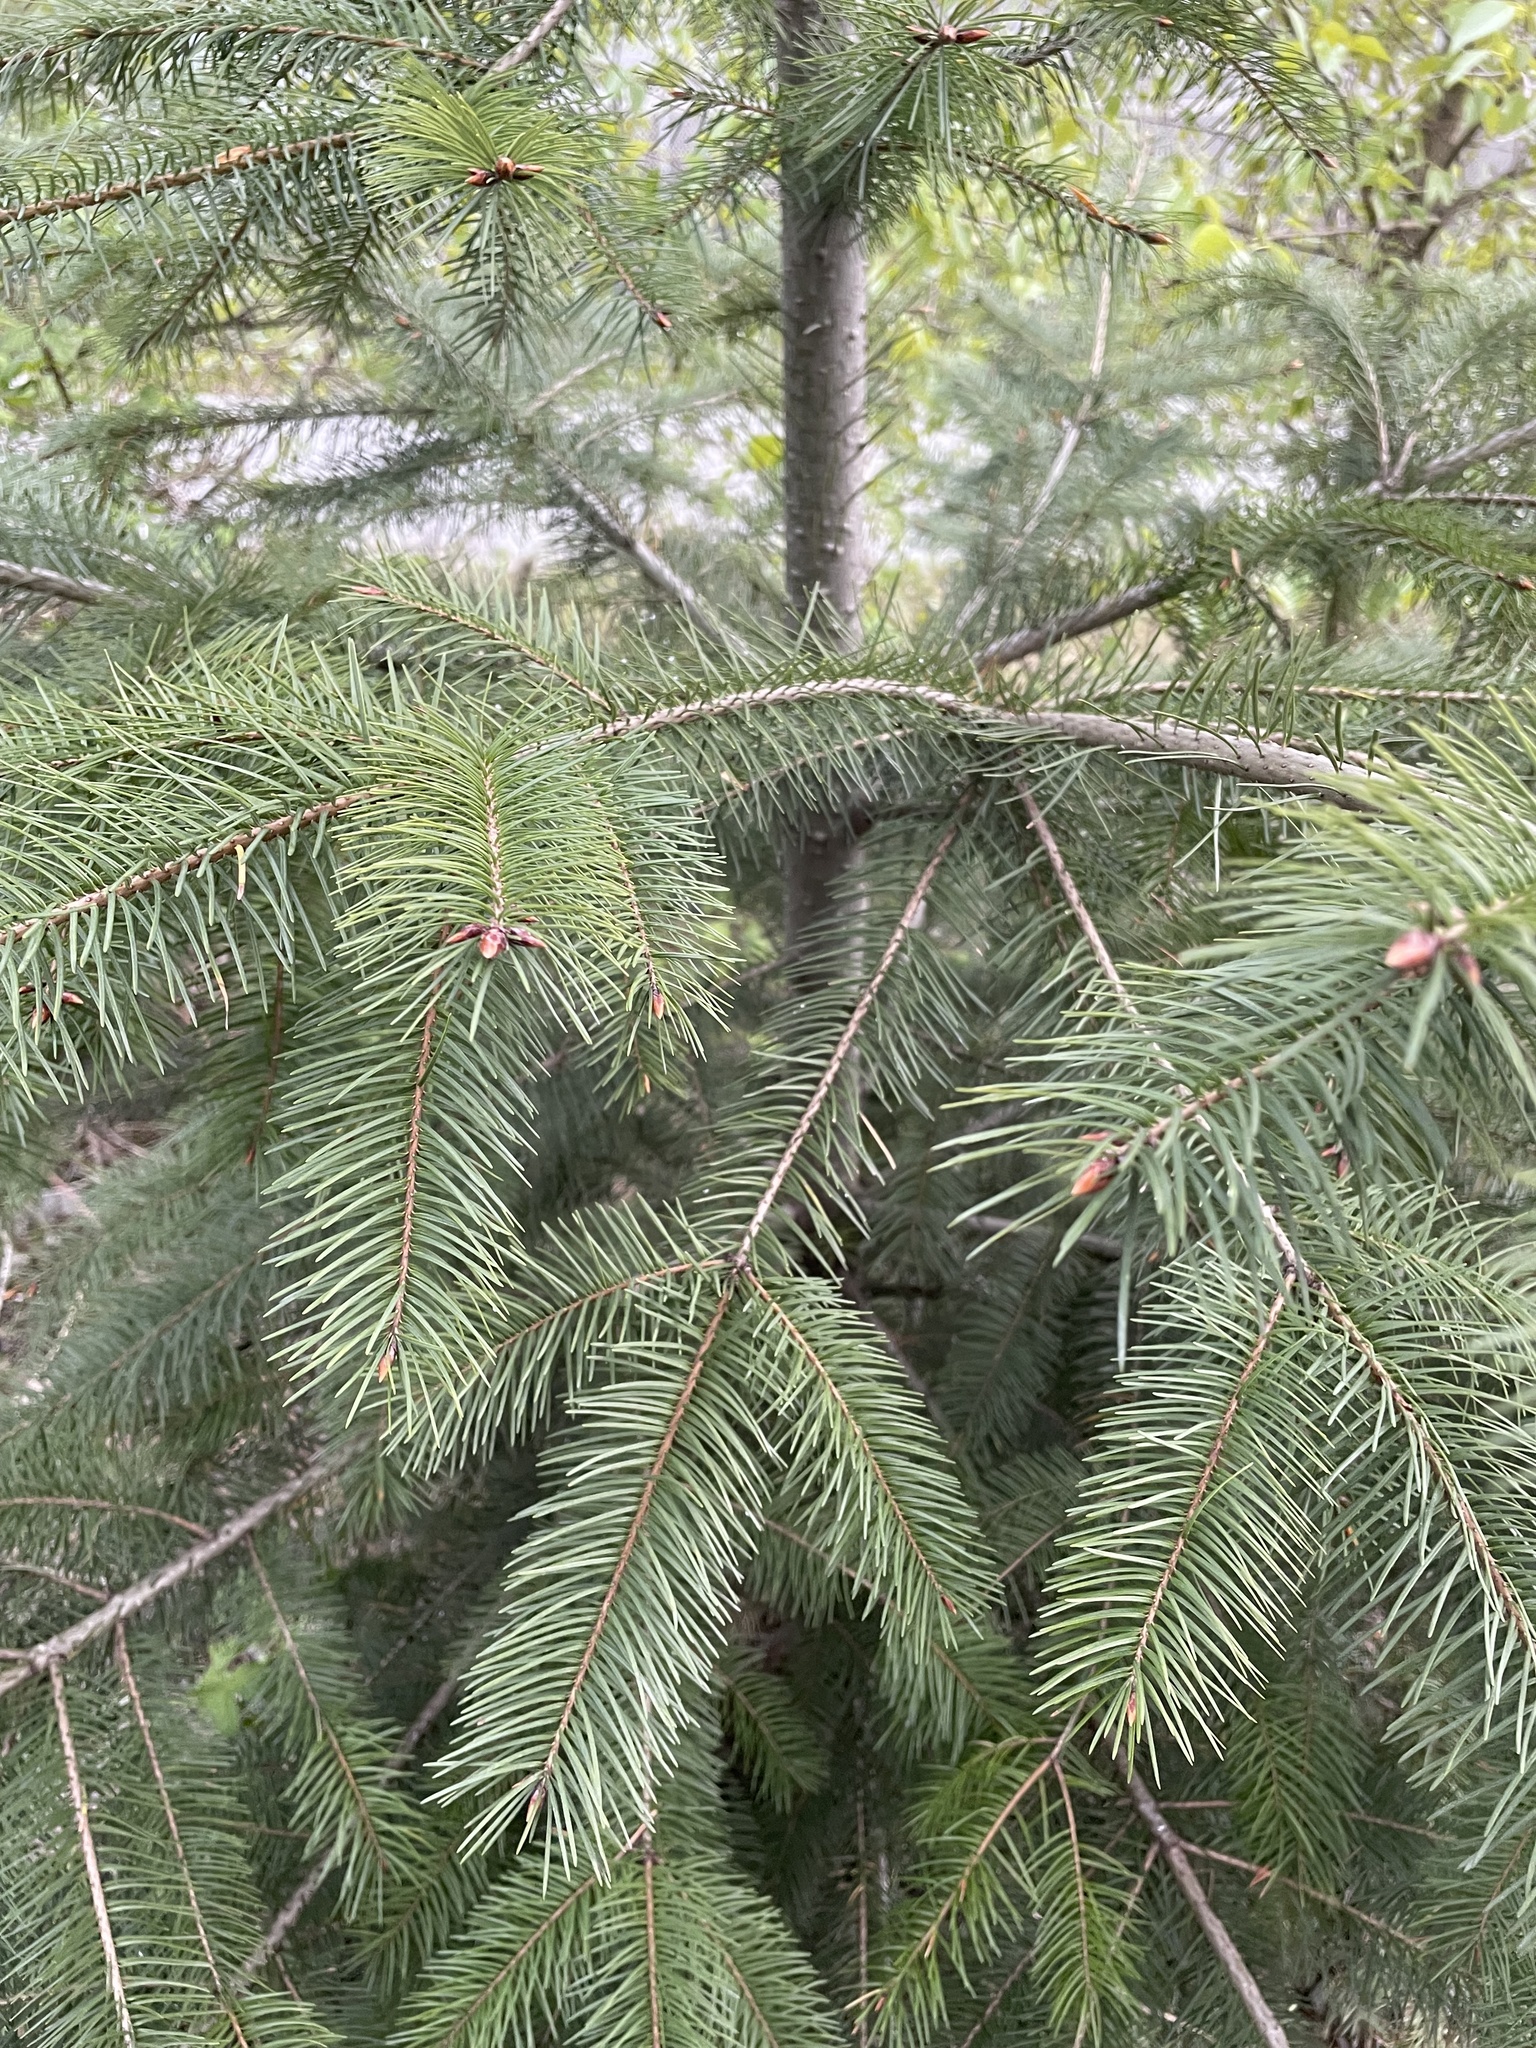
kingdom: Plantae
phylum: Tracheophyta
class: Pinopsida
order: Pinales
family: Pinaceae
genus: Pseudotsuga
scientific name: Pseudotsuga menziesii
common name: Douglas fir
